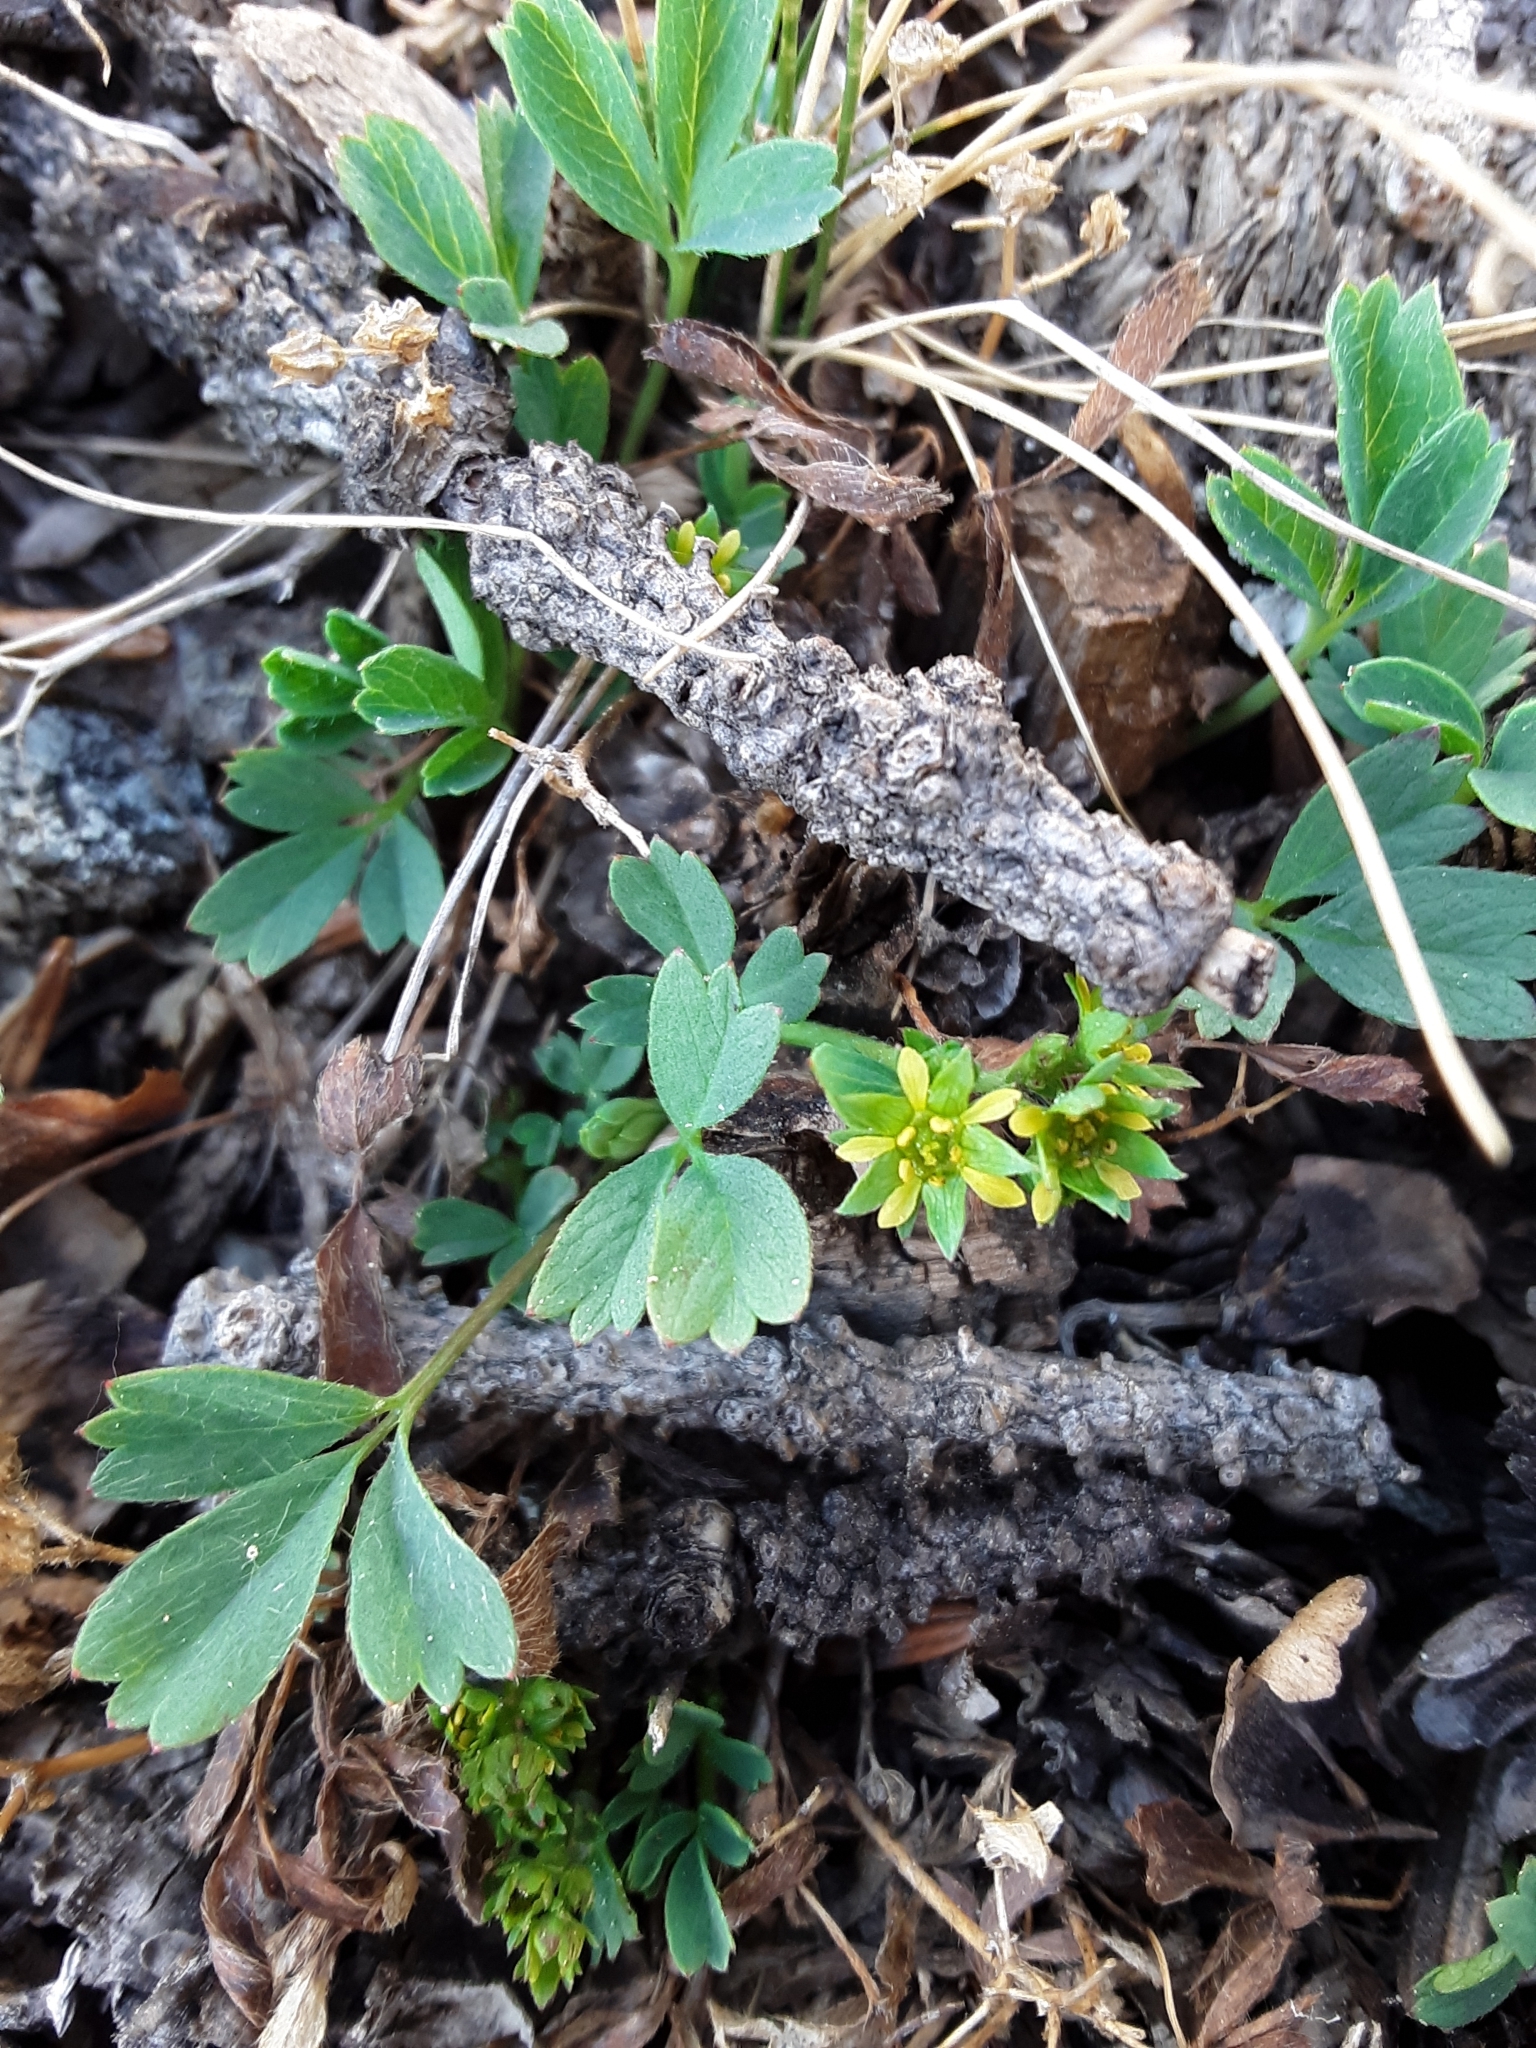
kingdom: Plantae
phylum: Tracheophyta
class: Magnoliopsida
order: Rosales
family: Rosaceae
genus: Sibbaldia
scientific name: Sibbaldia procumbens
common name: Creeping sibbaldia
